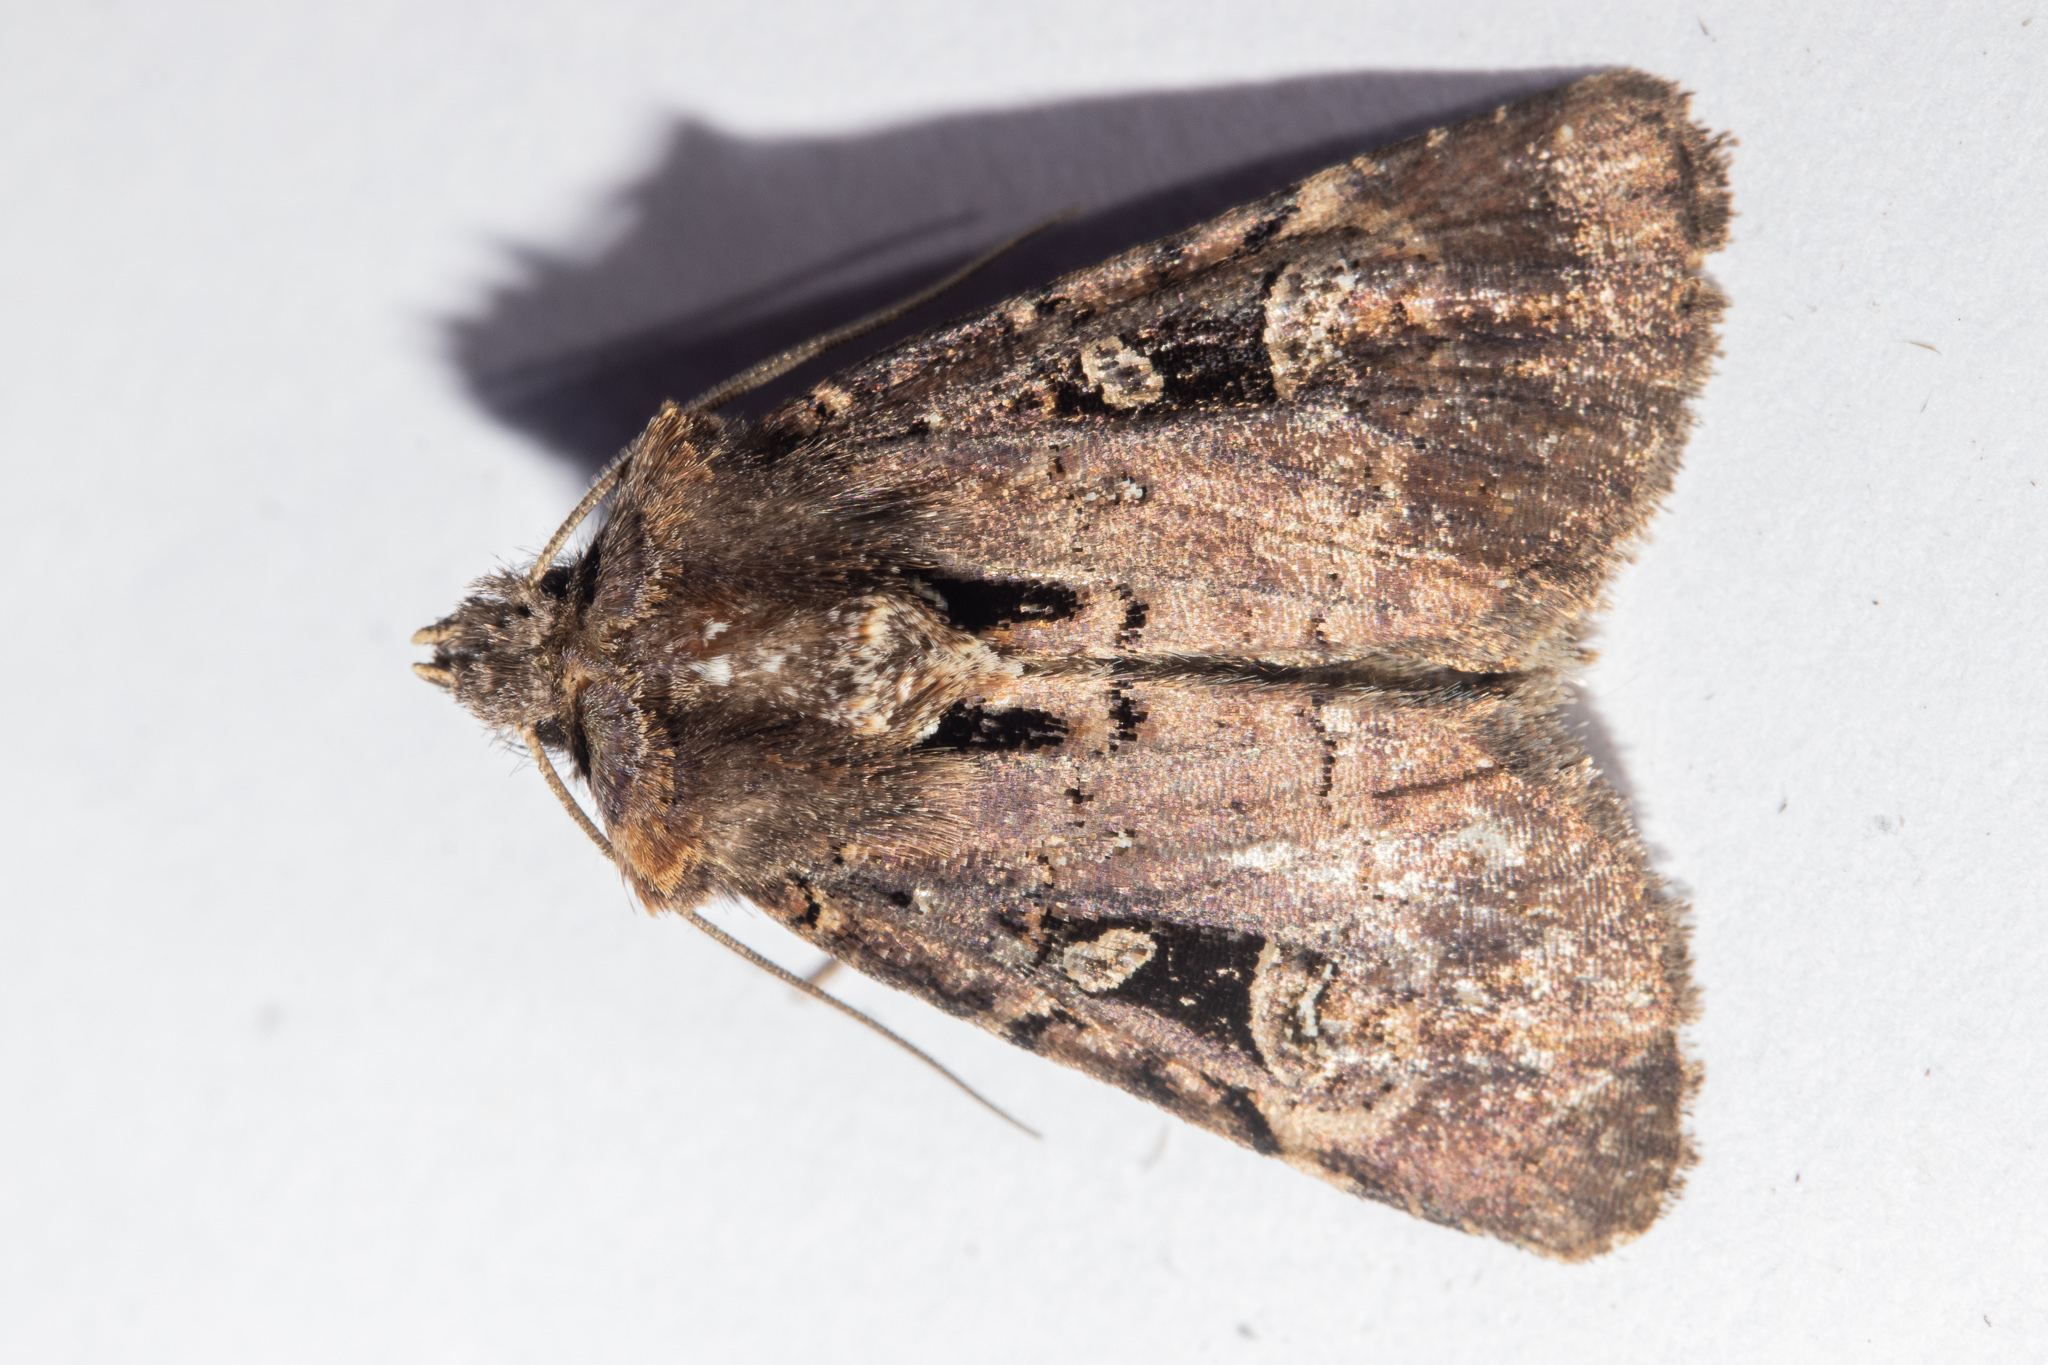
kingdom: Animalia
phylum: Arthropoda
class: Insecta
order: Lepidoptera
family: Noctuidae
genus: Austramathes
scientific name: Austramathes
